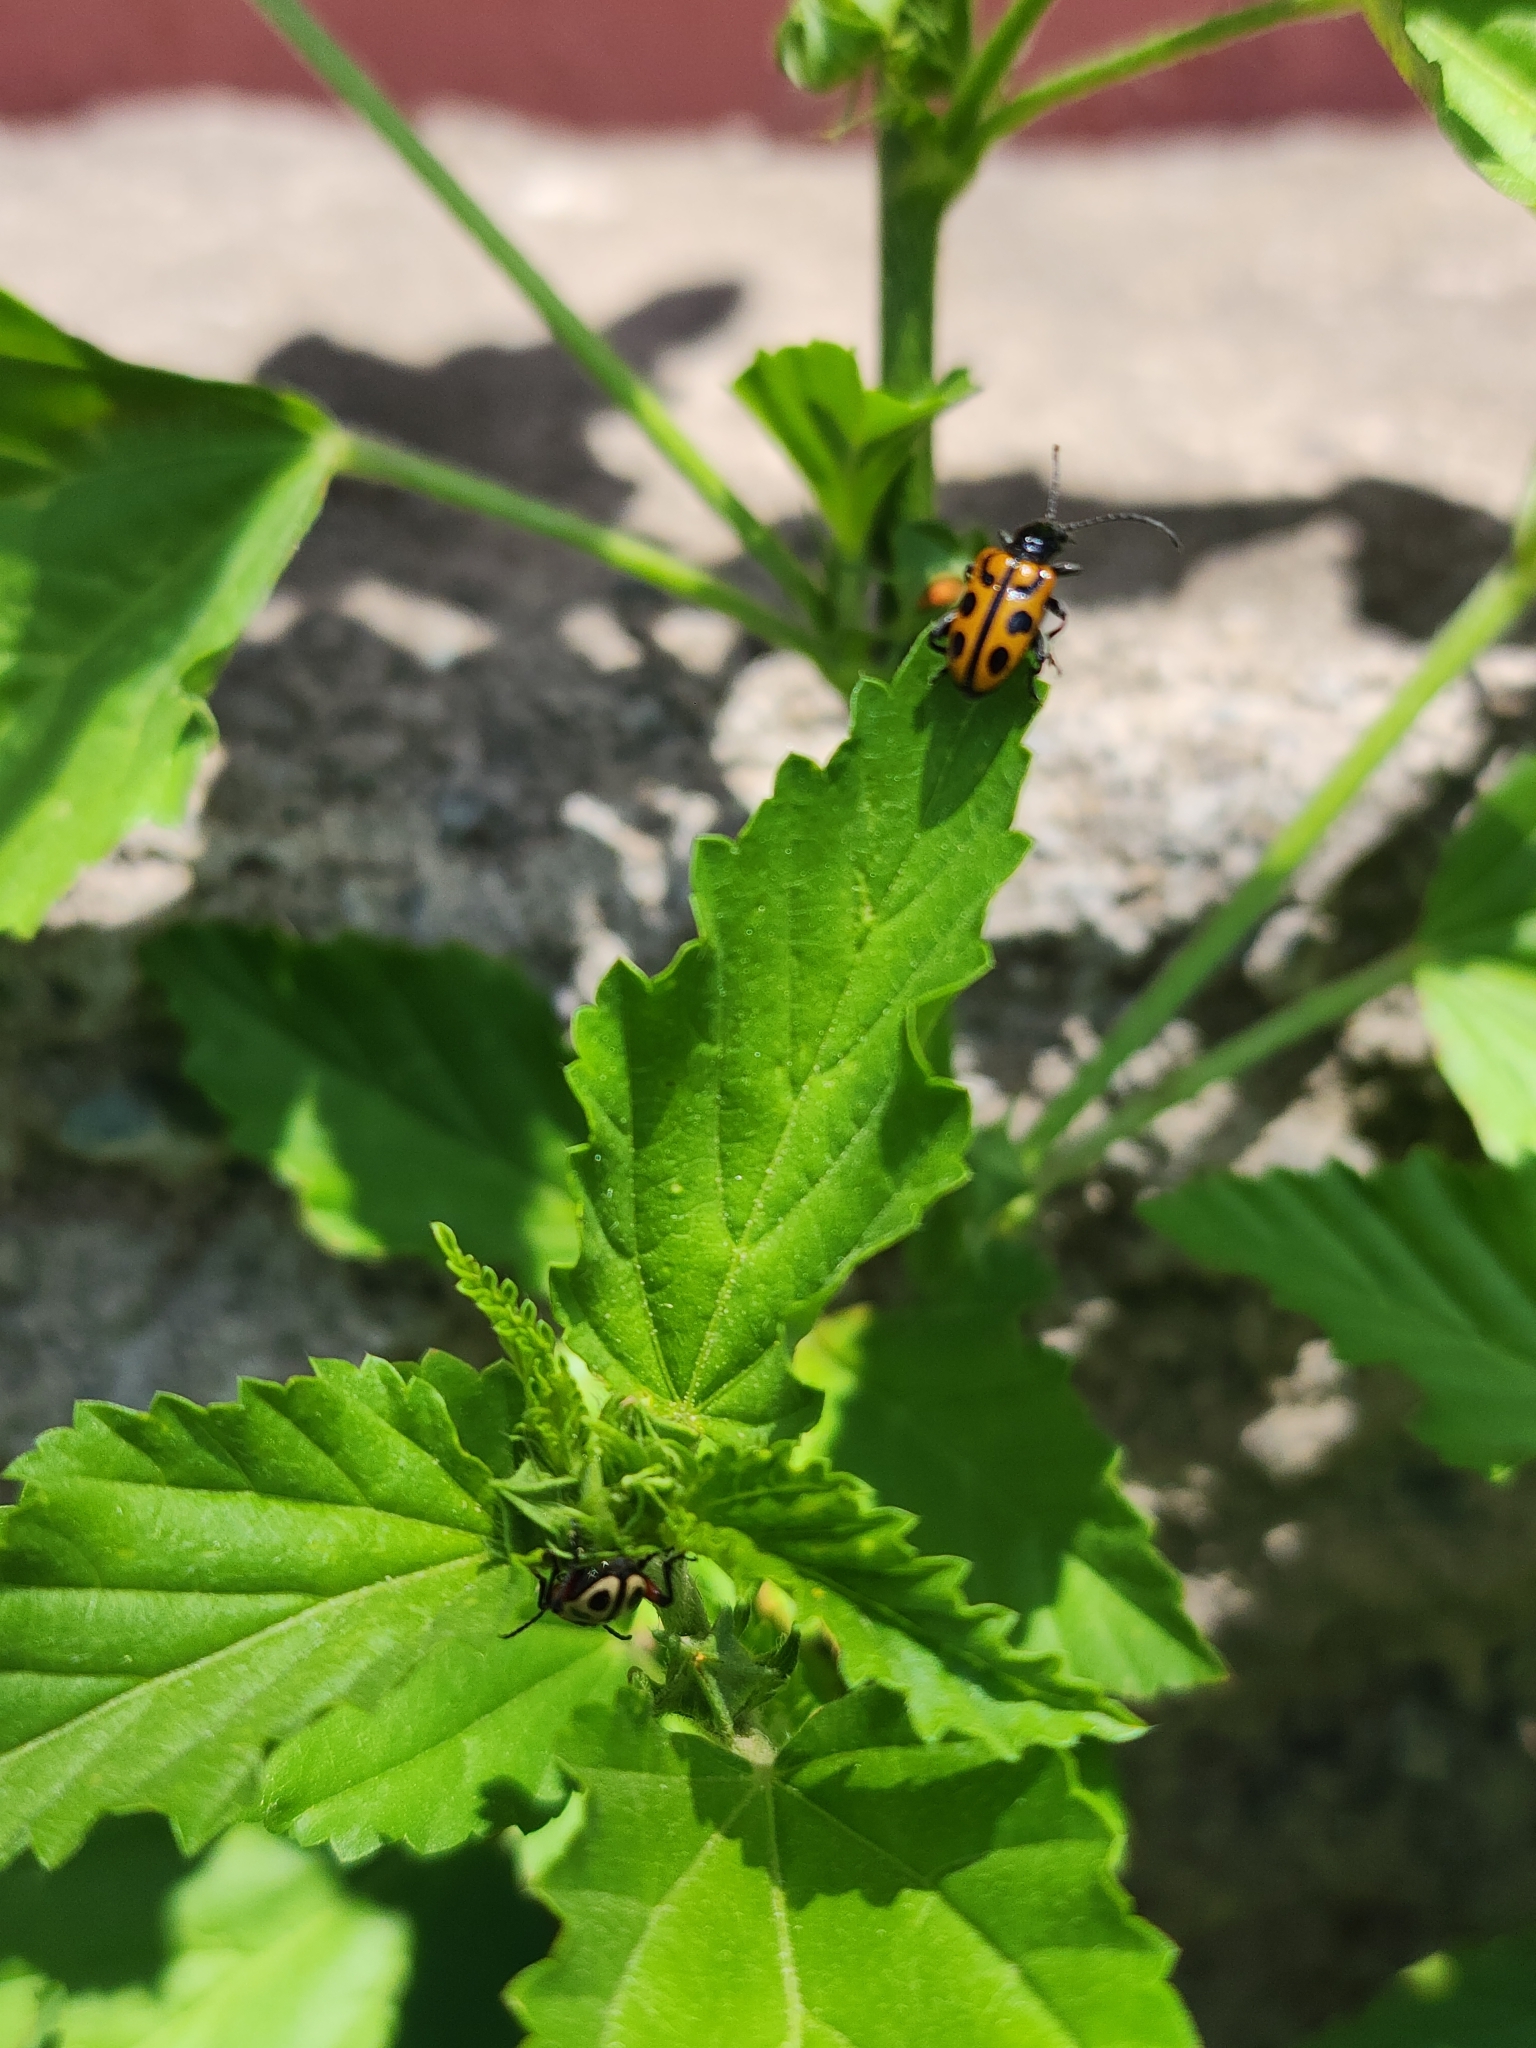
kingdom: Animalia
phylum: Arthropoda
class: Insecta
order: Coleoptera
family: Chrysomelidae
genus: Atalasis
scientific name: Atalasis
